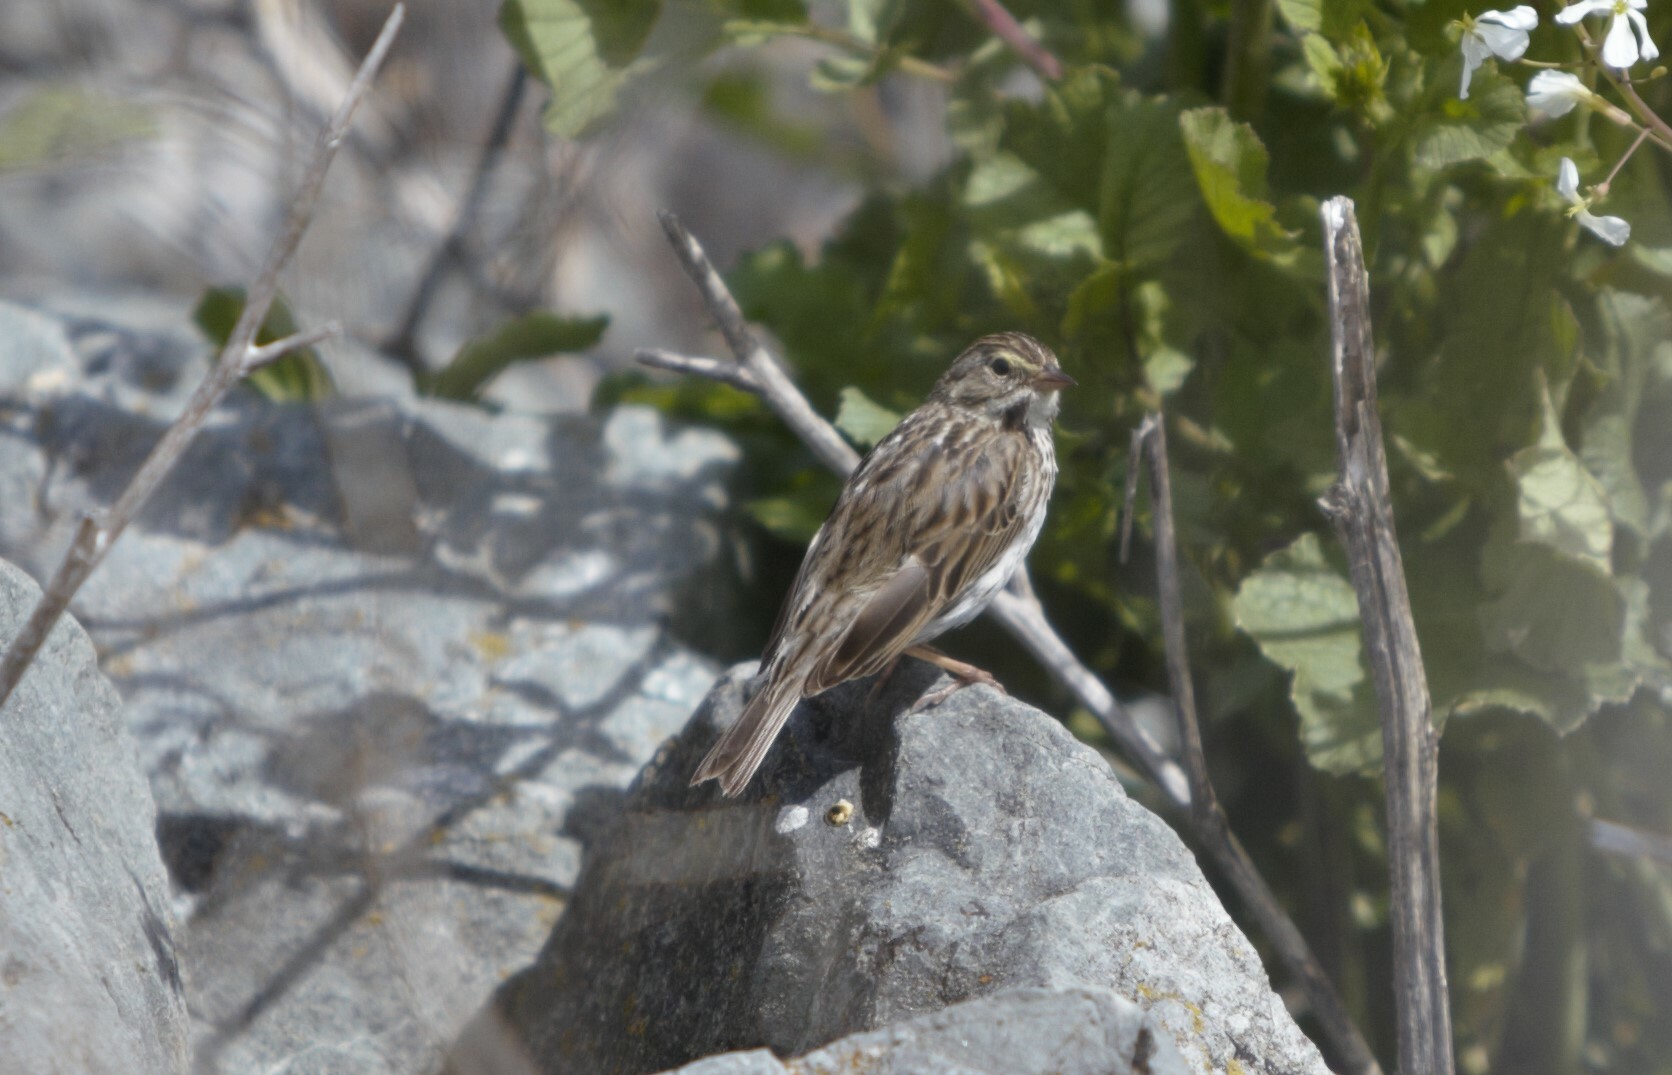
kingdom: Animalia
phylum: Chordata
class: Aves
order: Passeriformes
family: Passerellidae
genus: Passerculus
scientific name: Passerculus sandwichensis
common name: Savannah sparrow
